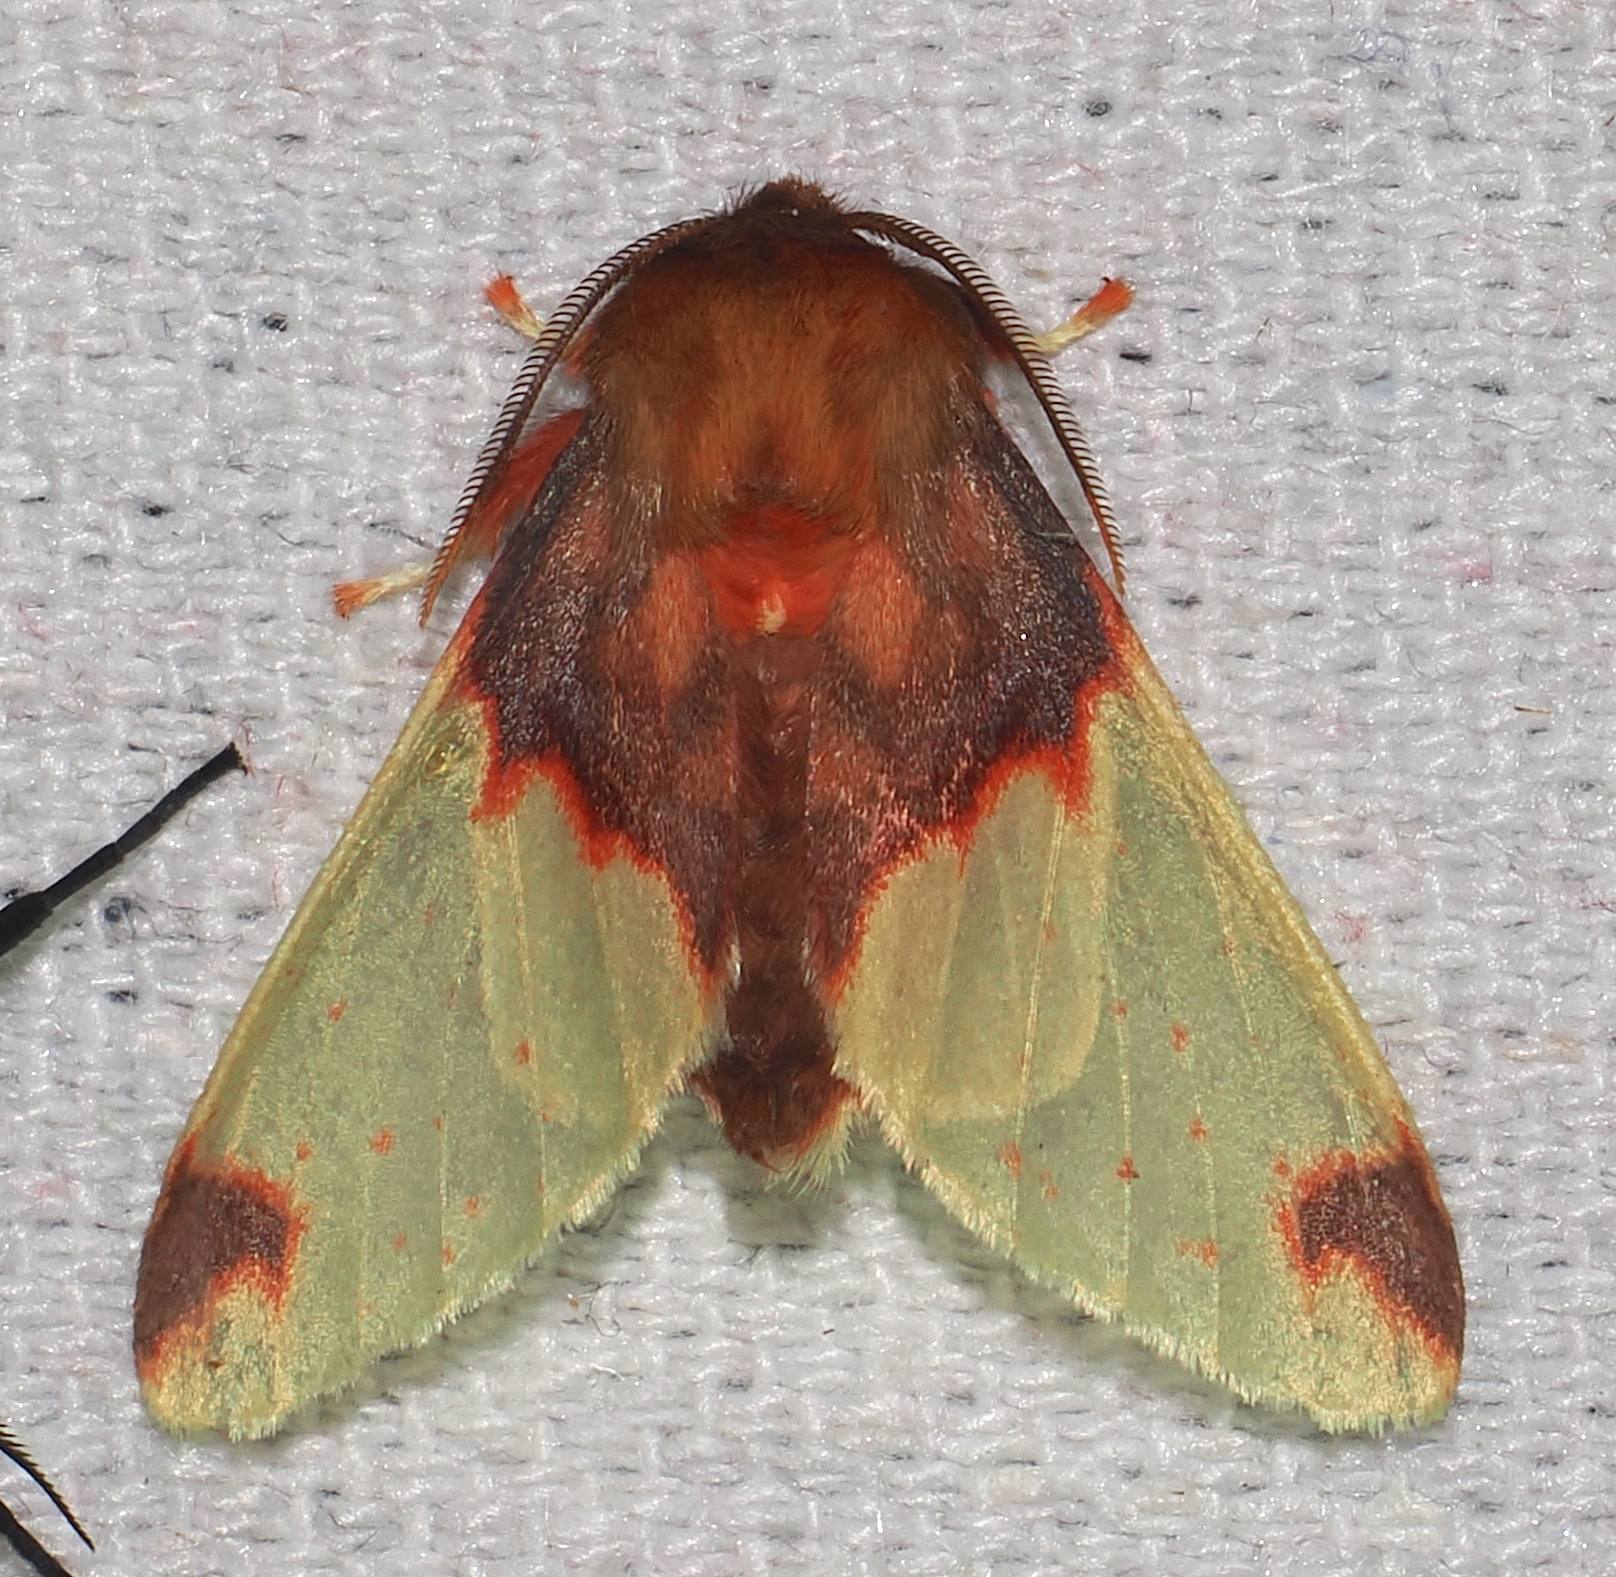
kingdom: Animalia
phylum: Arthropoda
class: Insecta
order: Lepidoptera
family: Erebidae
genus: Pseudepimolis
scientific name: Pseudepimolis
